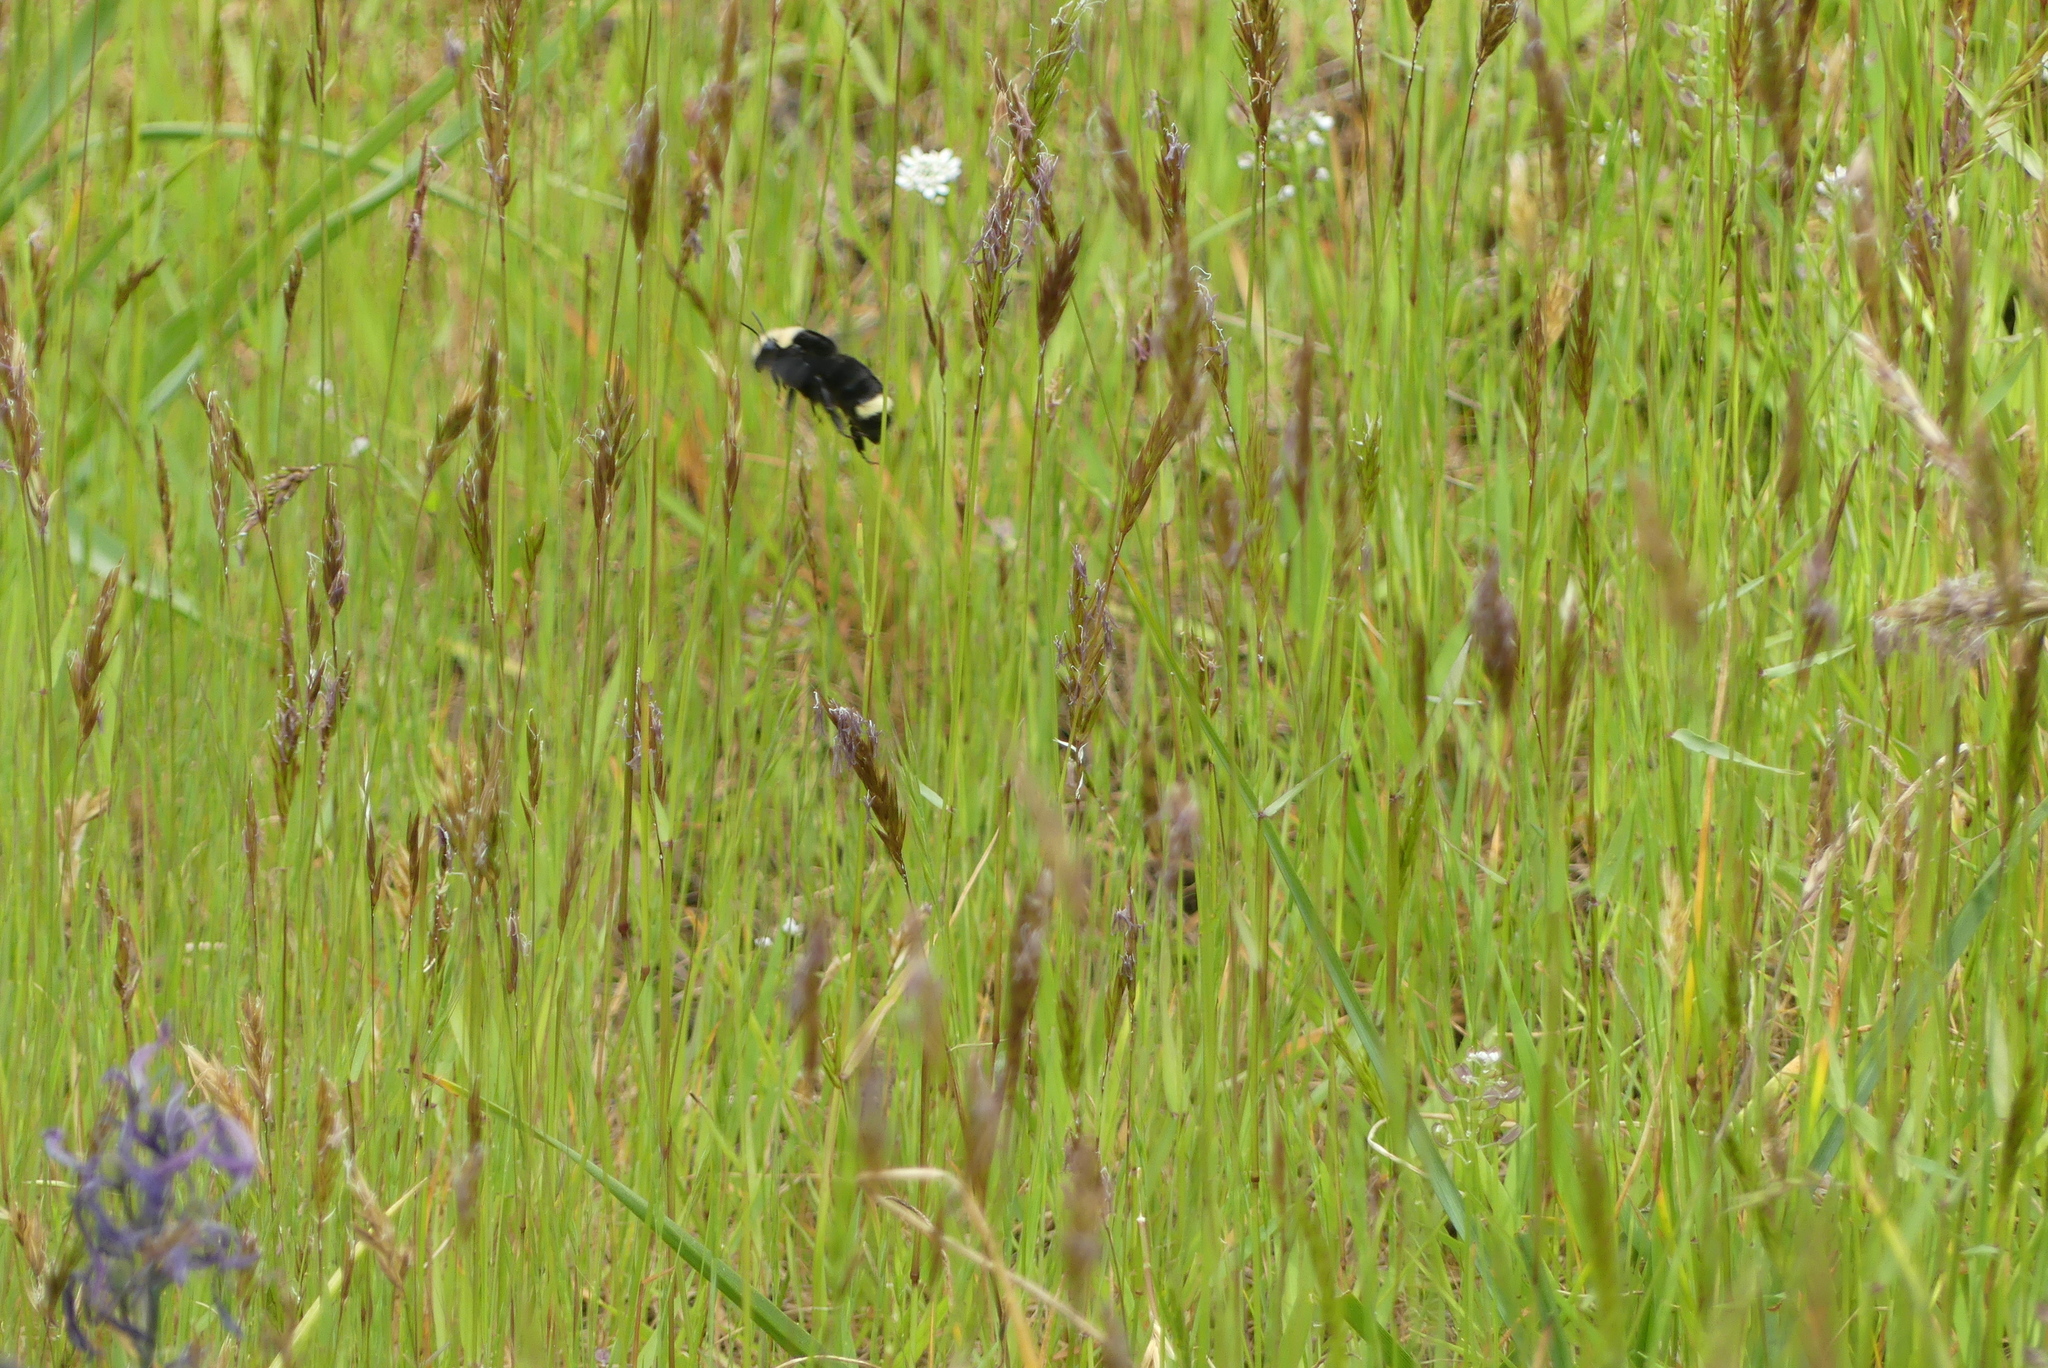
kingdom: Animalia
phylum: Arthropoda
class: Insecta
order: Hymenoptera
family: Apidae
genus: Bombus
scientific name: Bombus vosnesenskii
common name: Vosnesensky bumble bee
